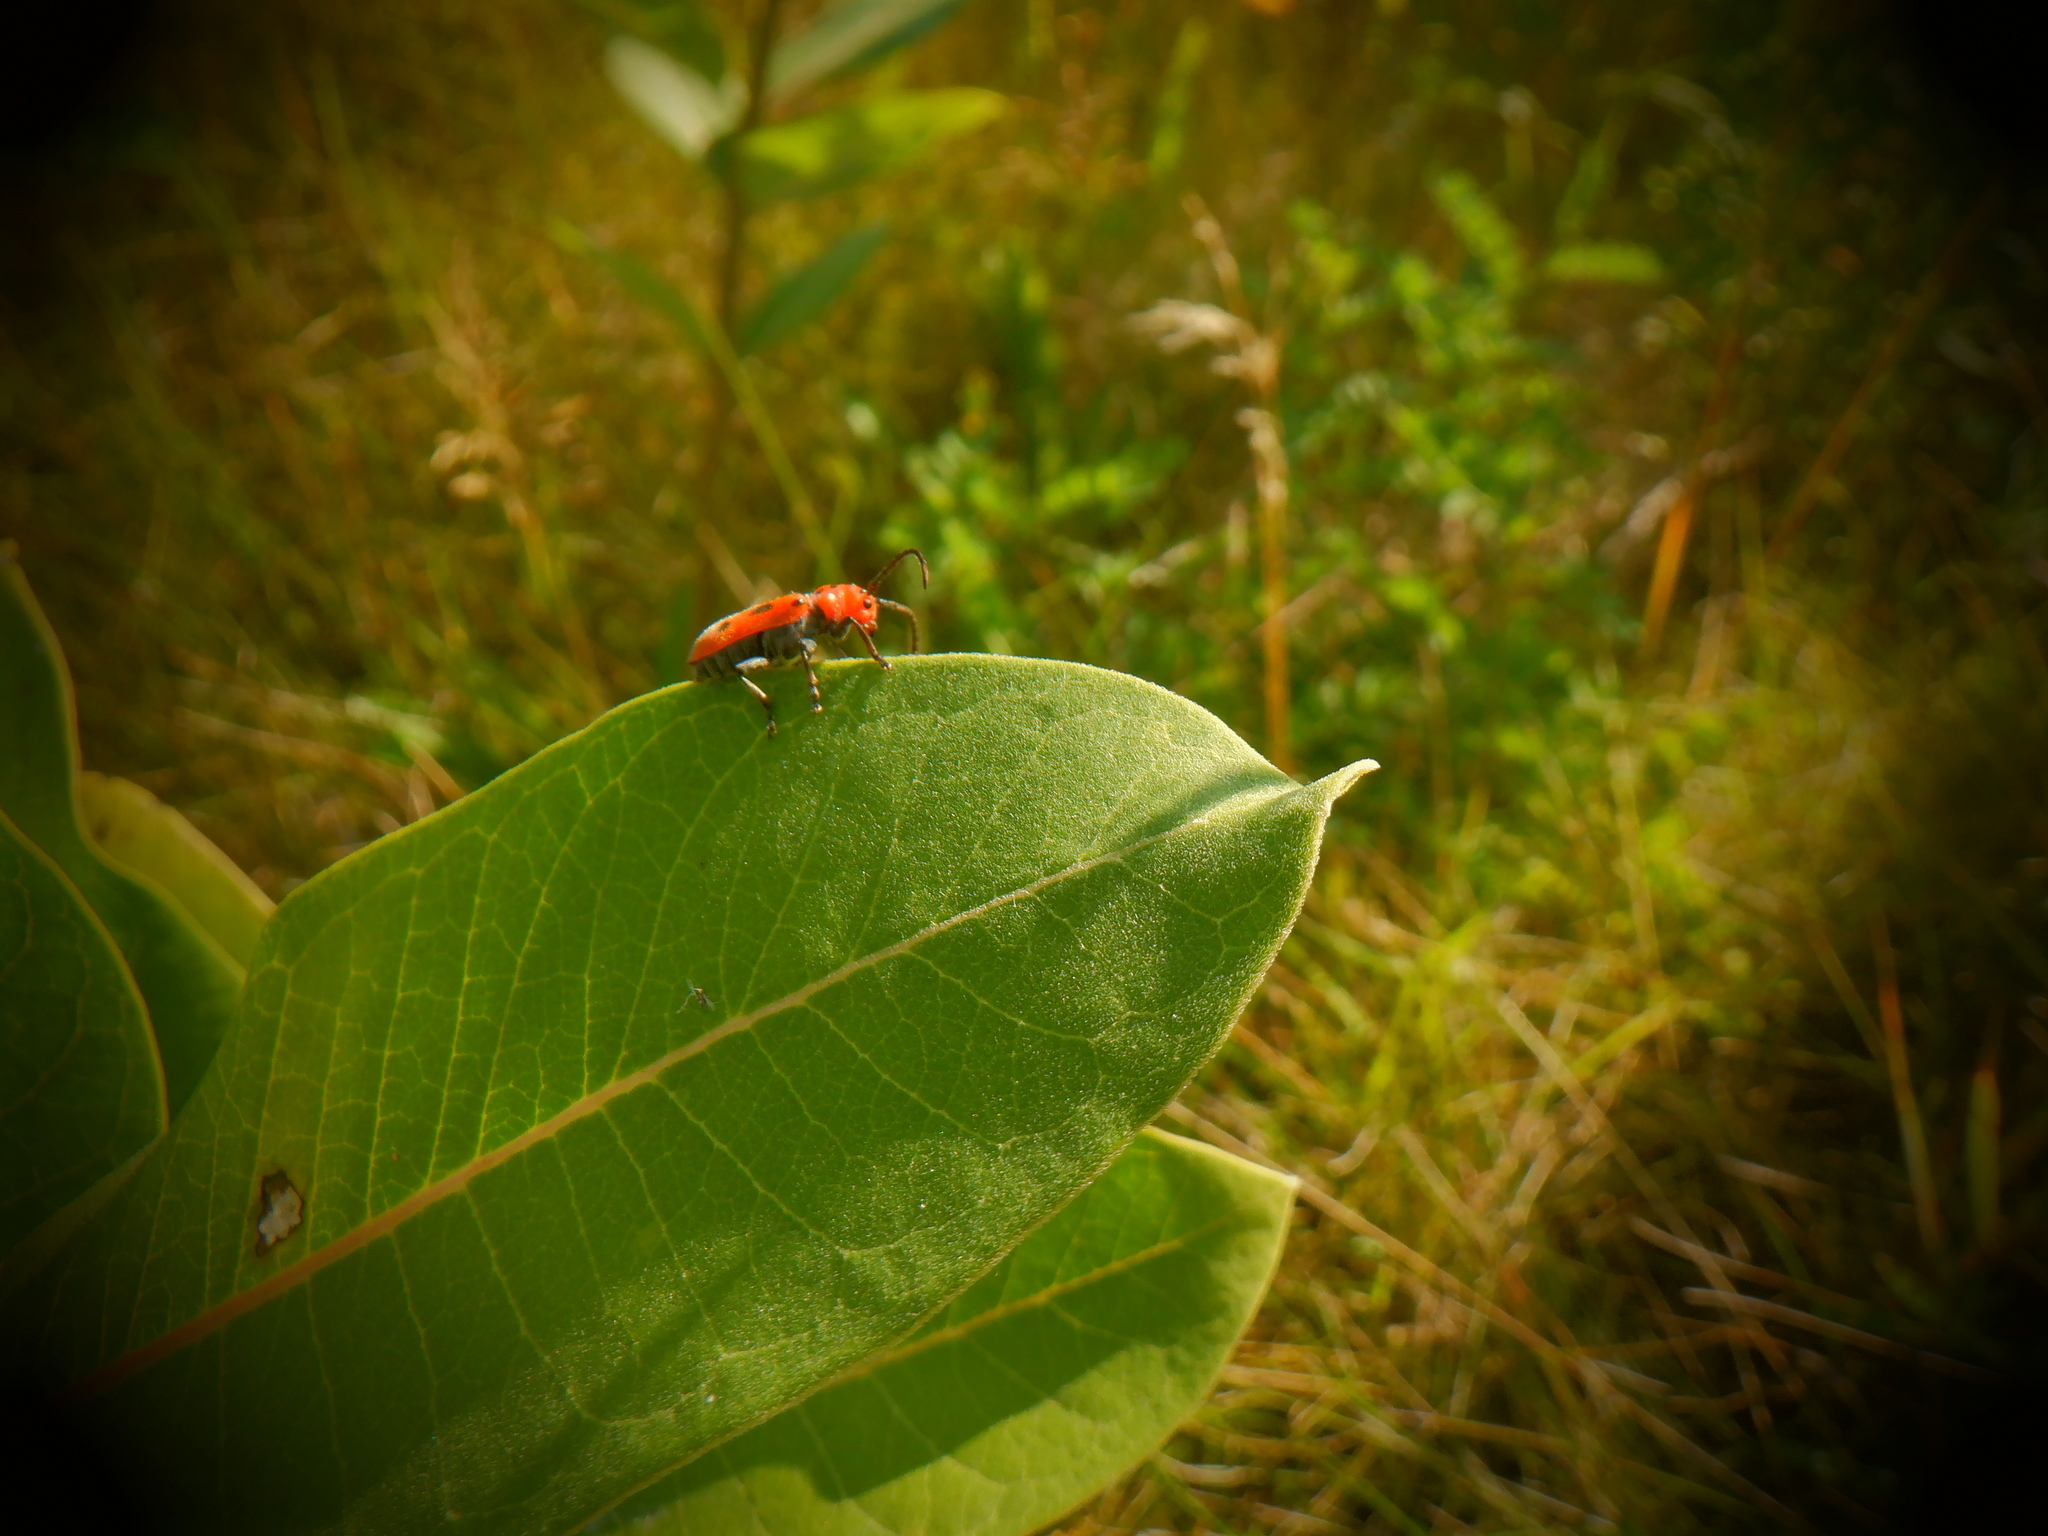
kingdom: Animalia
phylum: Arthropoda
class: Insecta
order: Coleoptera
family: Cerambycidae
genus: Tetraopes
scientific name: Tetraopes tetrophthalmus
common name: Red milkweed beetle
